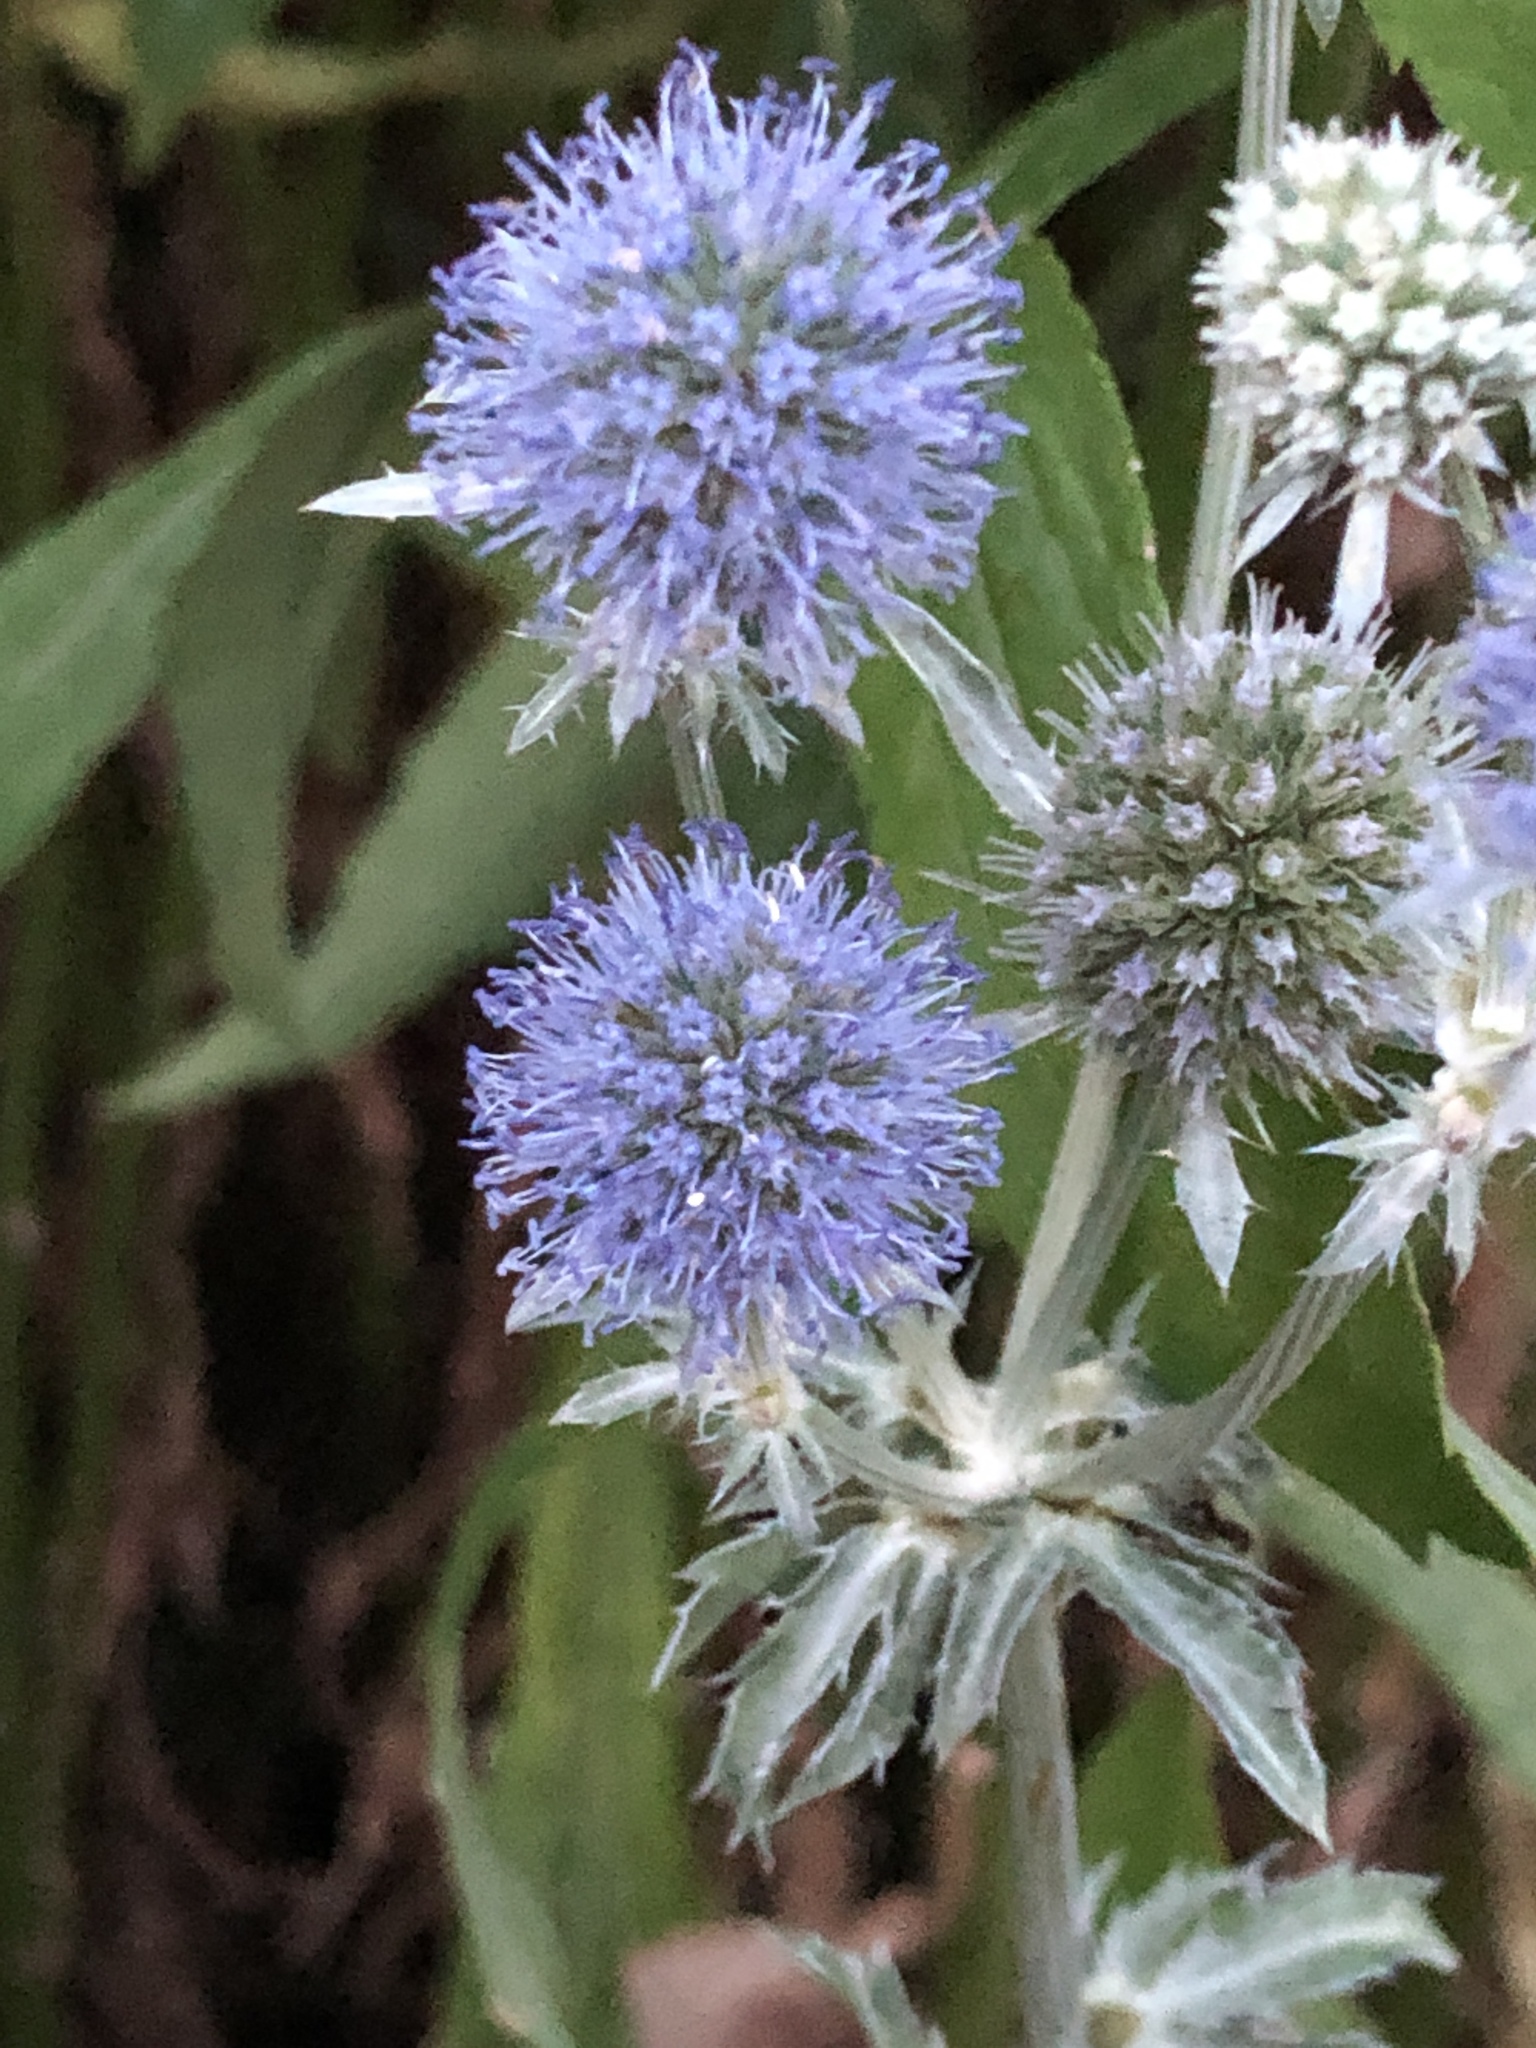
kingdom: Plantae
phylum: Tracheophyta
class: Magnoliopsida
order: Apiales
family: Apiaceae
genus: Eryngium
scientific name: Eryngium planum
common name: Blue eryngo
